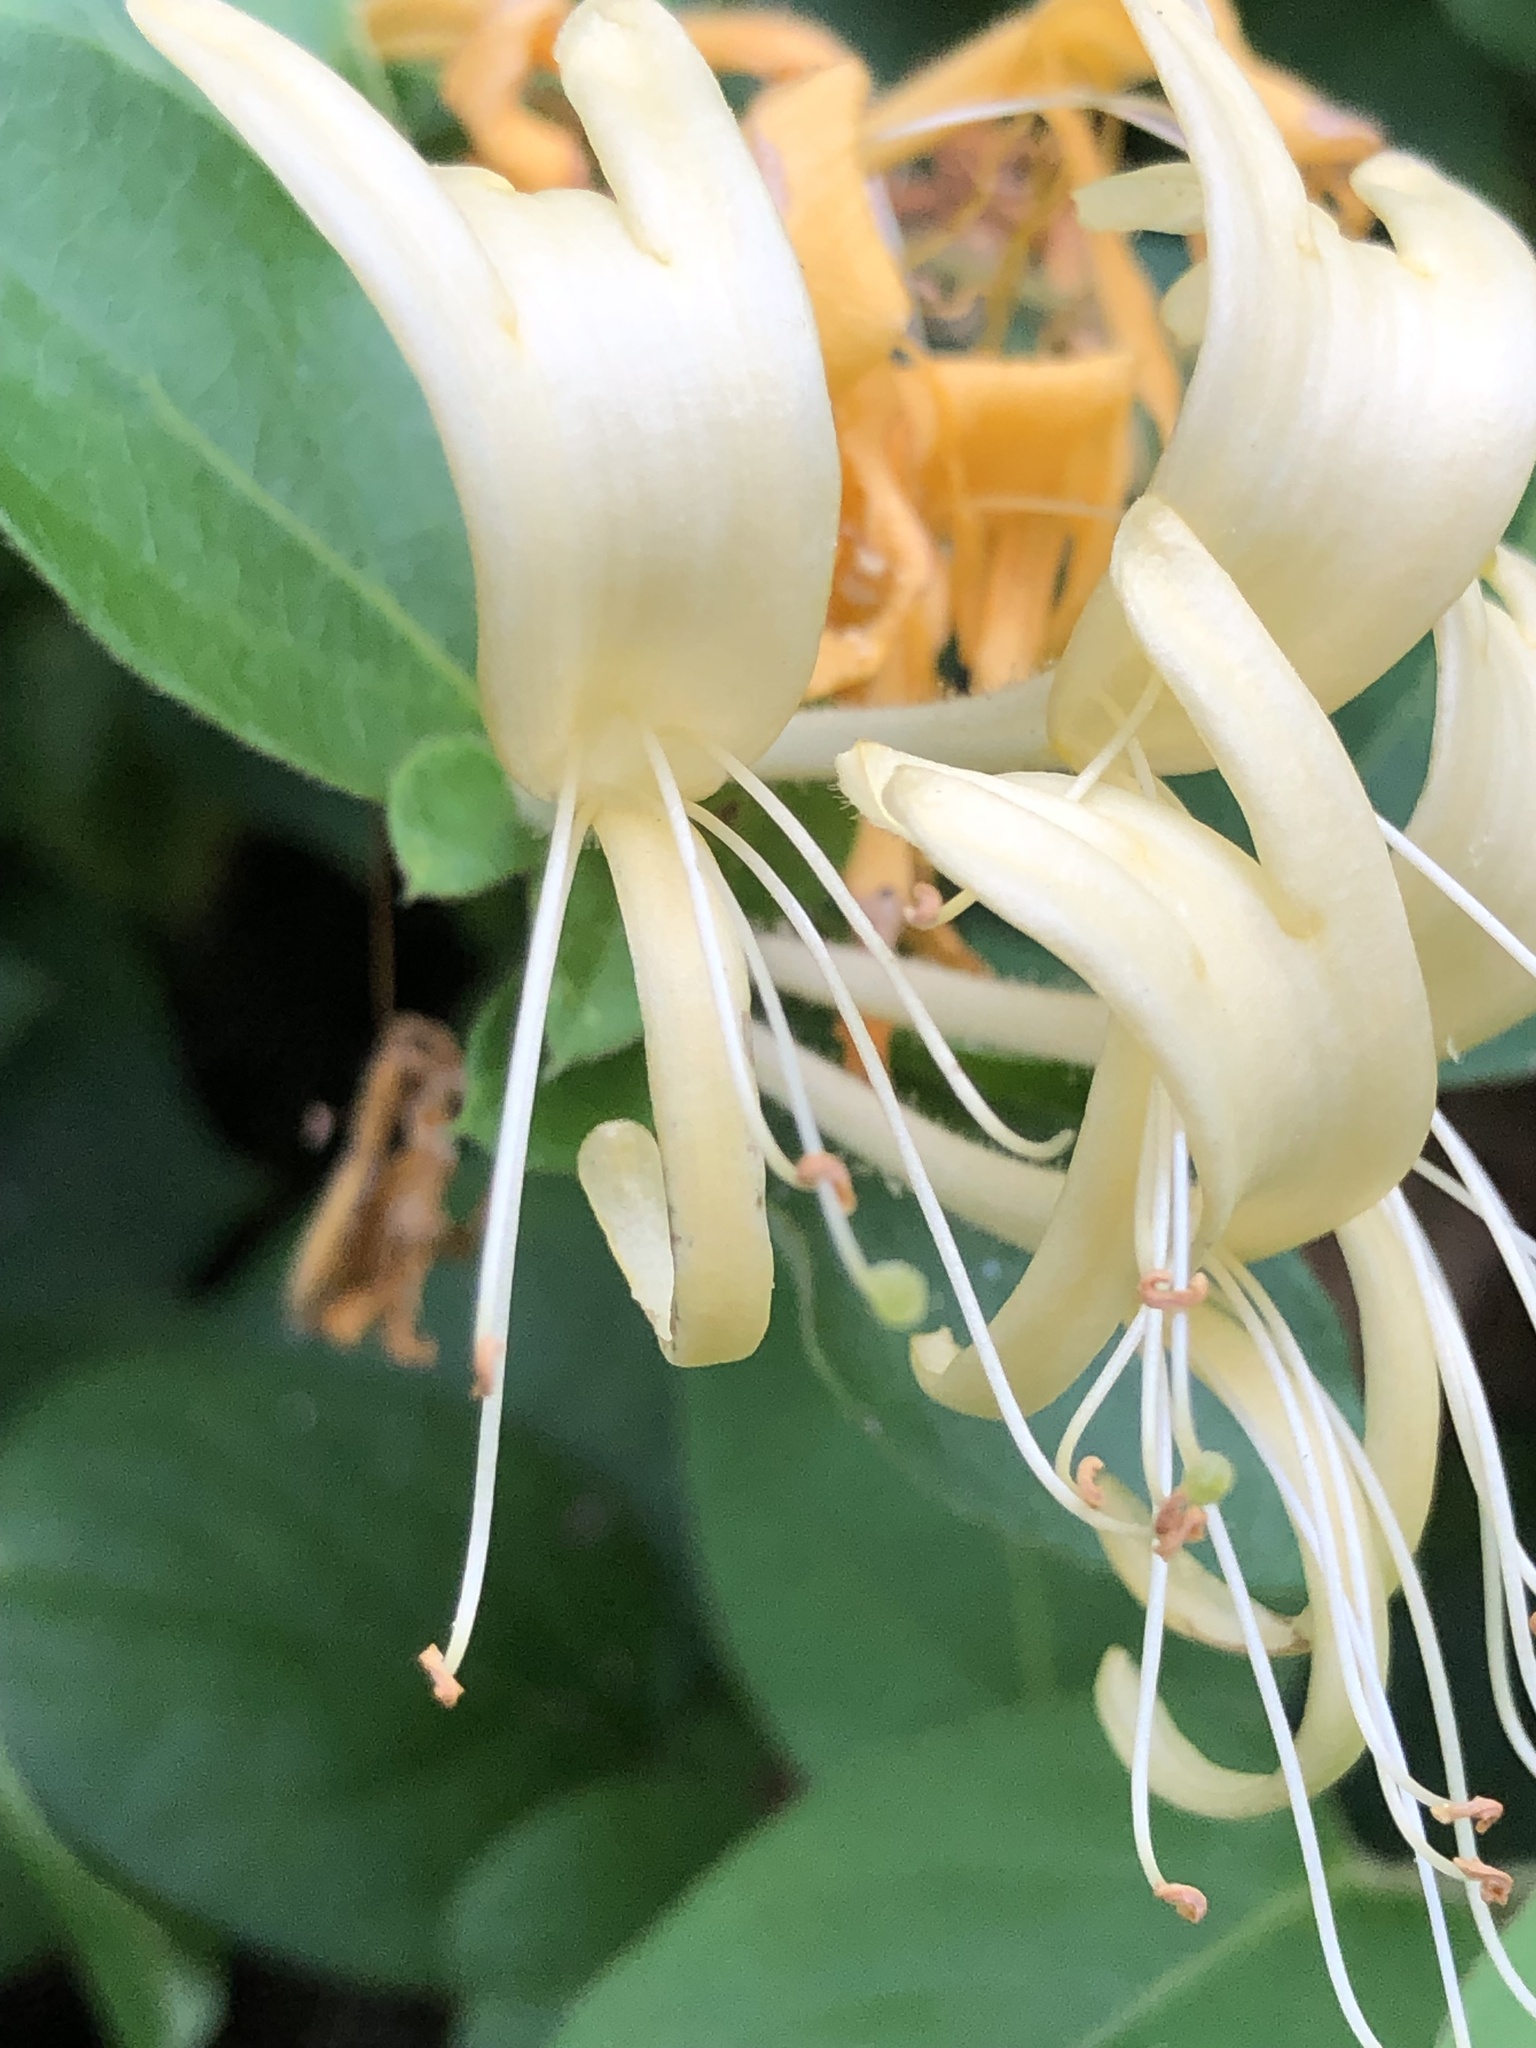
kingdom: Plantae
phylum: Tracheophyta
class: Magnoliopsida
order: Dipsacales
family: Caprifoliaceae
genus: Lonicera
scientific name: Lonicera japonica
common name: Japanese honeysuckle
